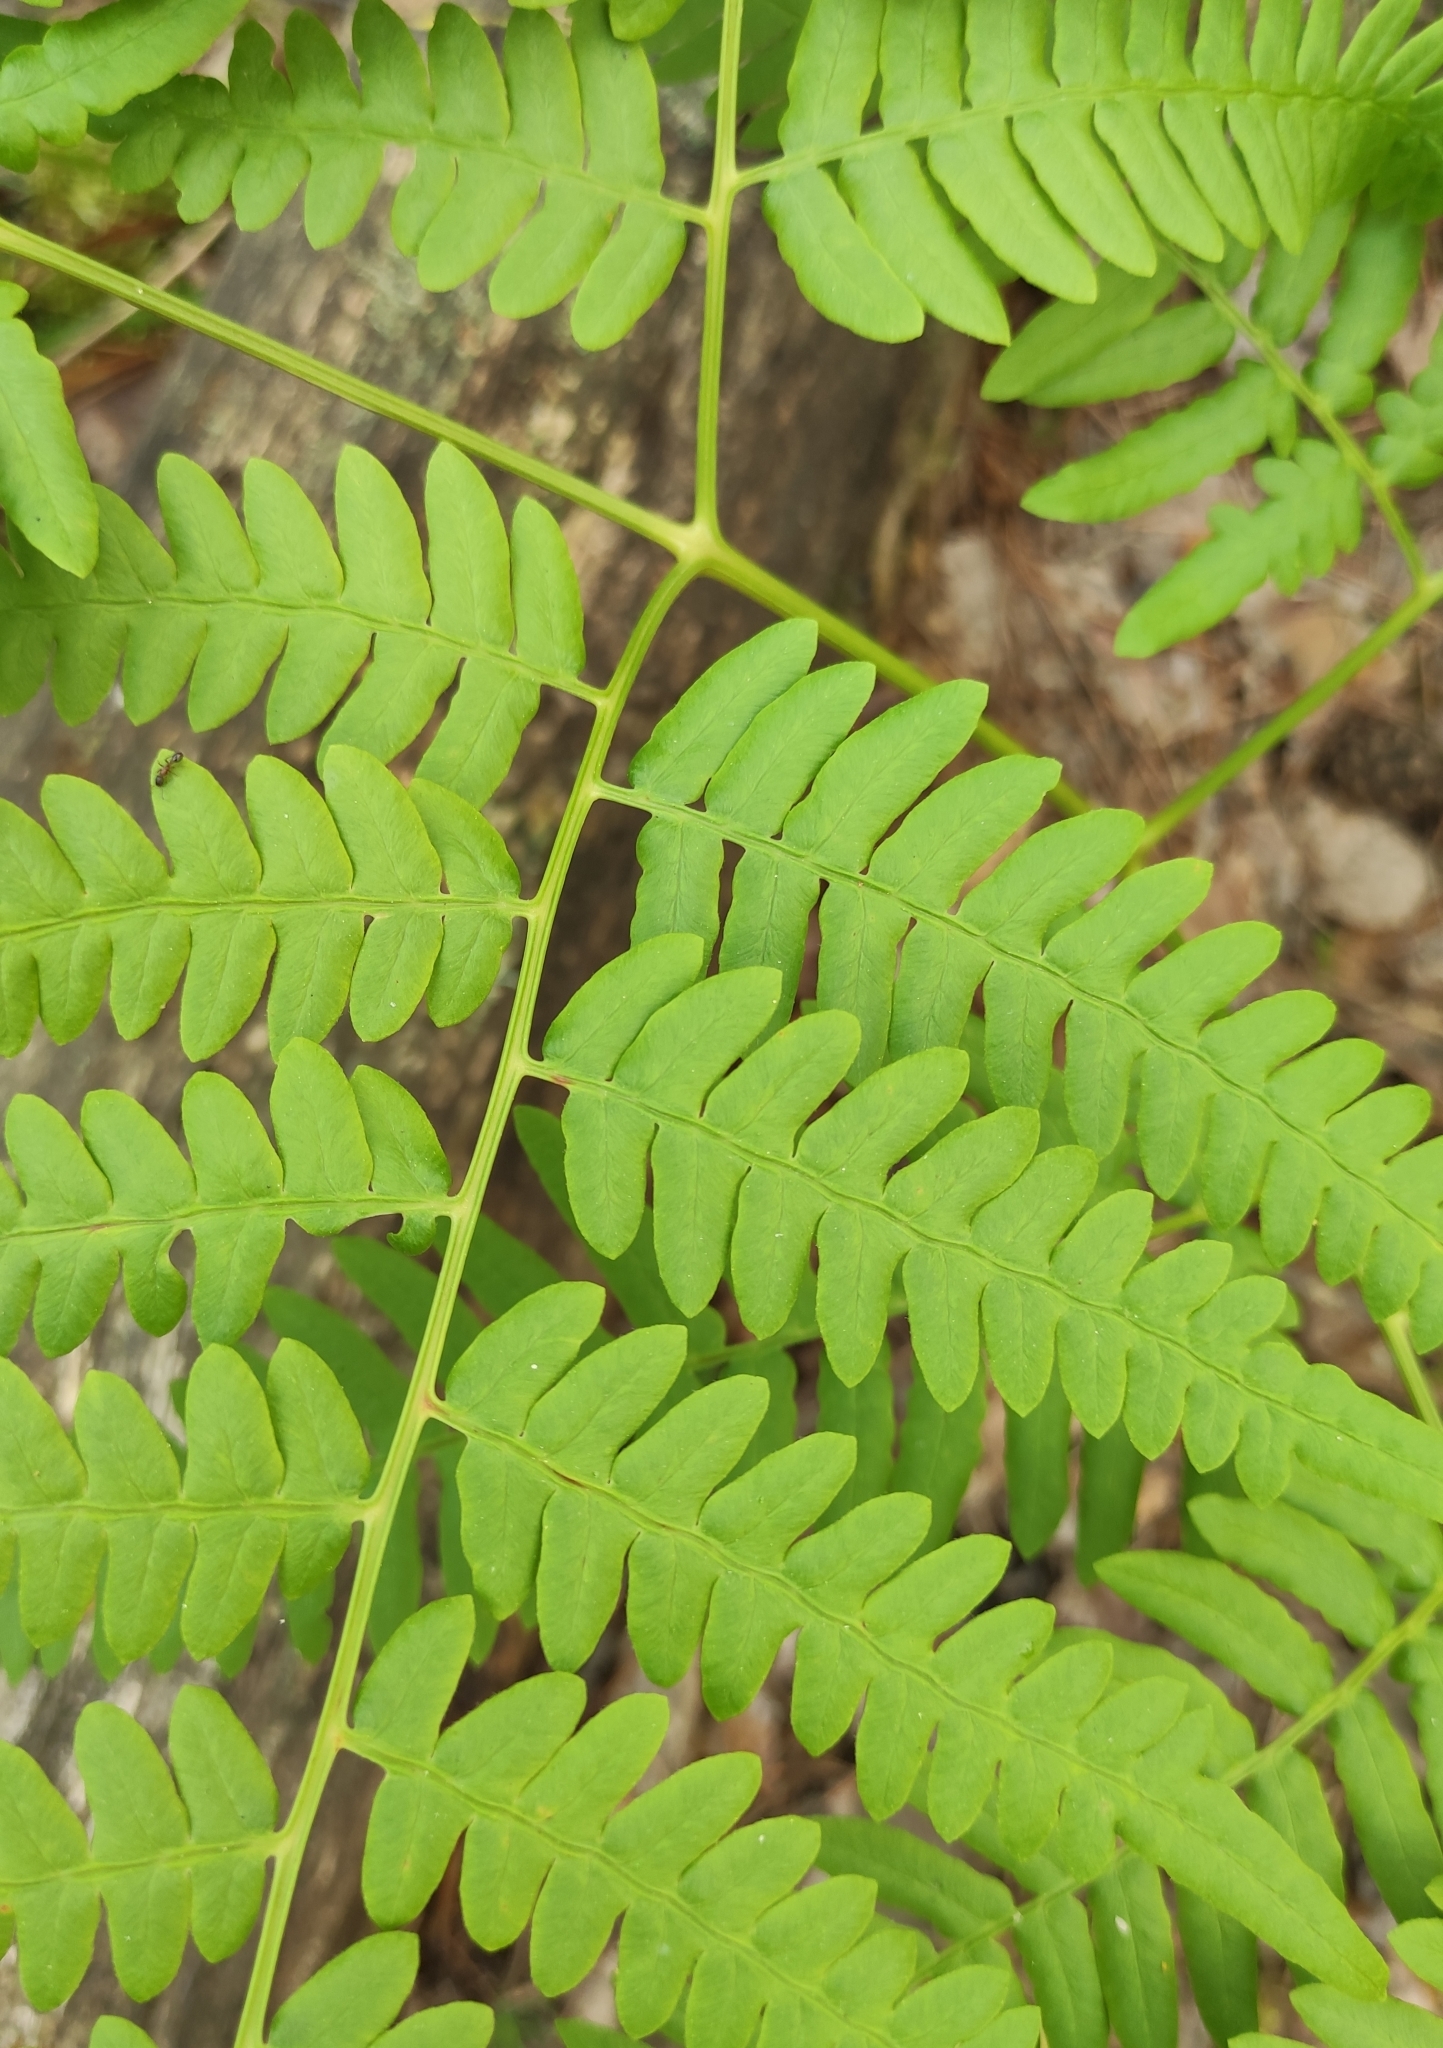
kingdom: Plantae
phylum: Tracheophyta
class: Polypodiopsida
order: Polypodiales
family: Dennstaedtiaceae
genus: Pteridium
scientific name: Pteridium aquilinum
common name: Bracken
